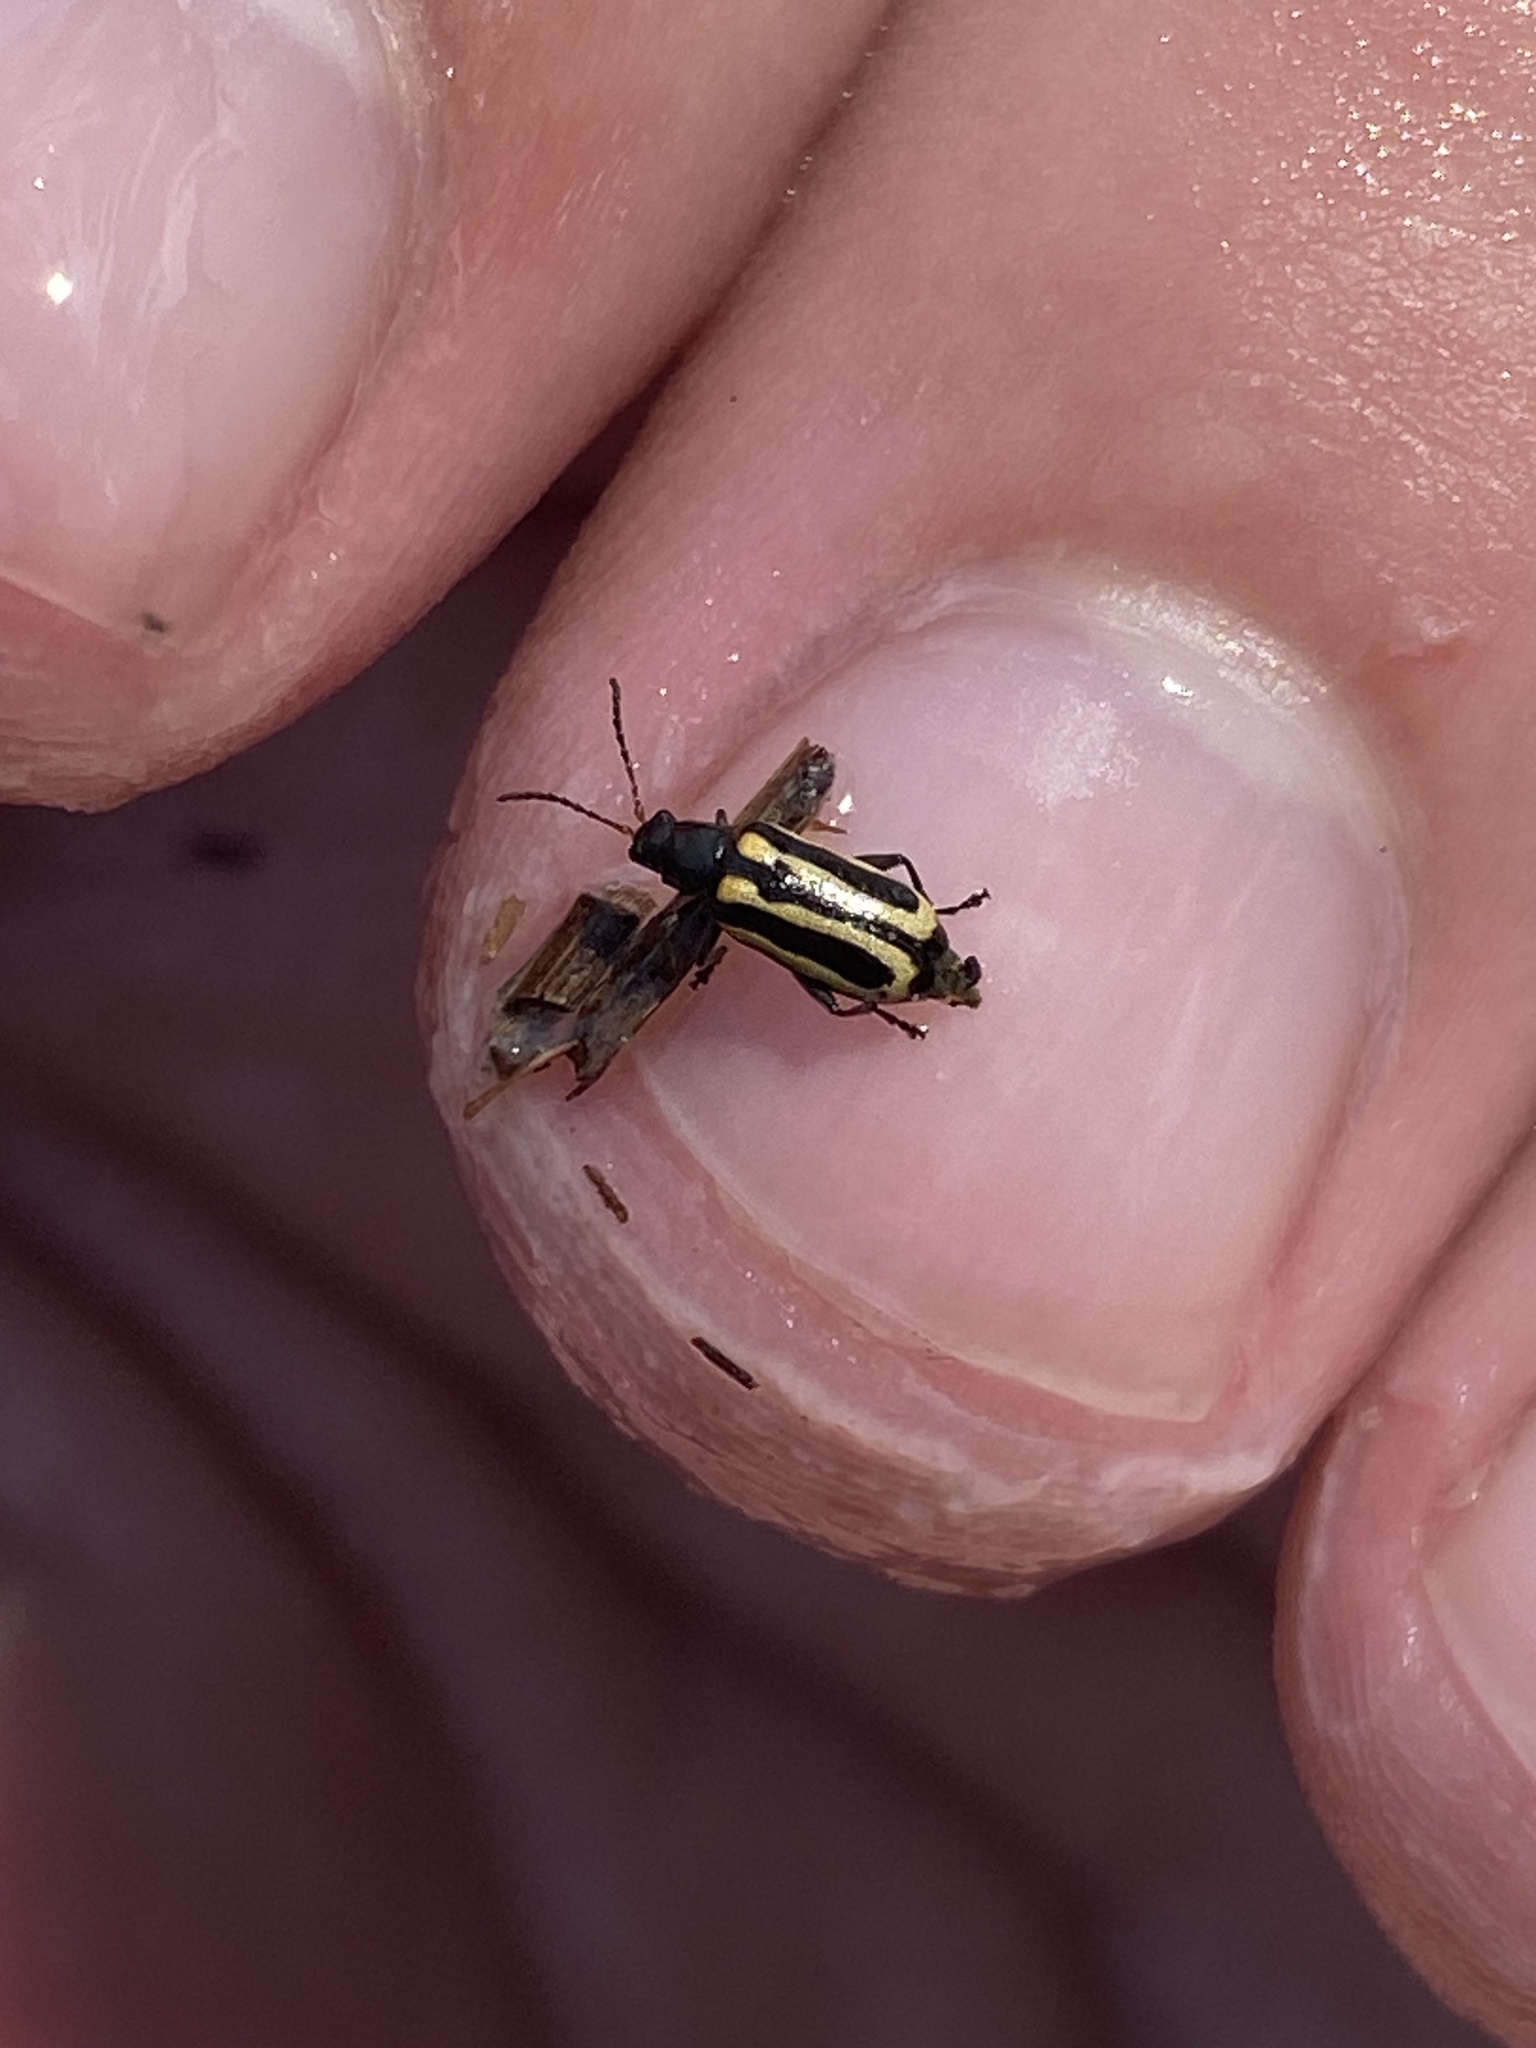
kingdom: Animalia
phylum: Arthropoda
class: Insecta
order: Coleoptera
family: Chrysomelidae
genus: Agasicles
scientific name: Agasicles hygrophila
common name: Alligatorweed flea beetle
